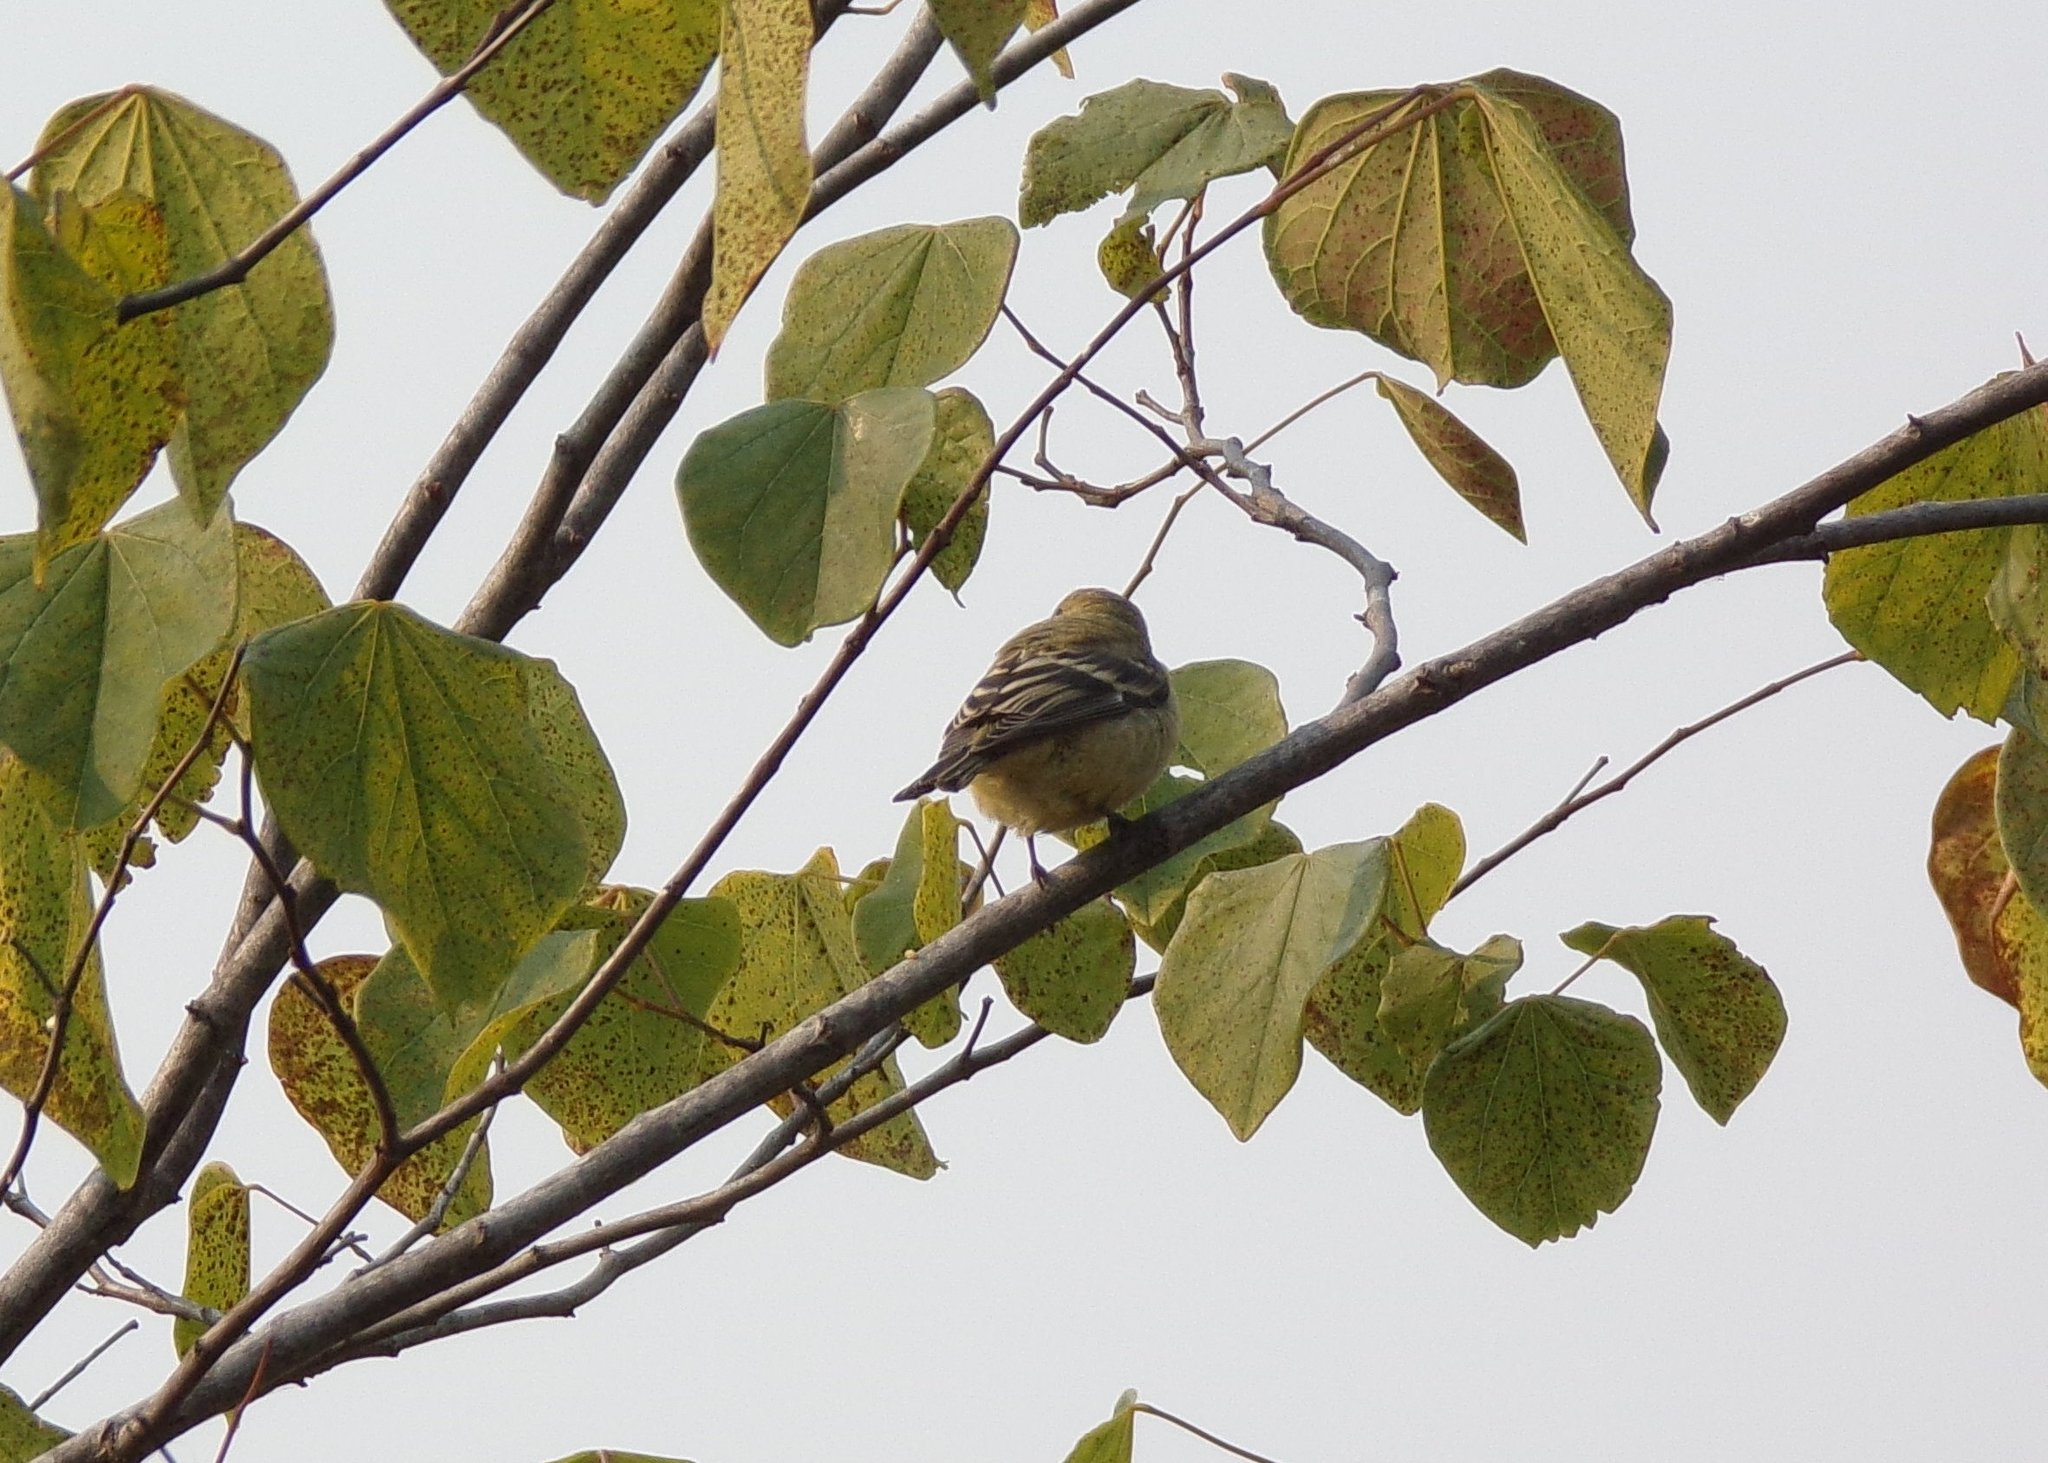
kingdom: Animalia
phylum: Chordata
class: Aves
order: Passeriformes
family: Fringillidae
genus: Spinus
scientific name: Spinus psaltria
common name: Lesser goldfinch
